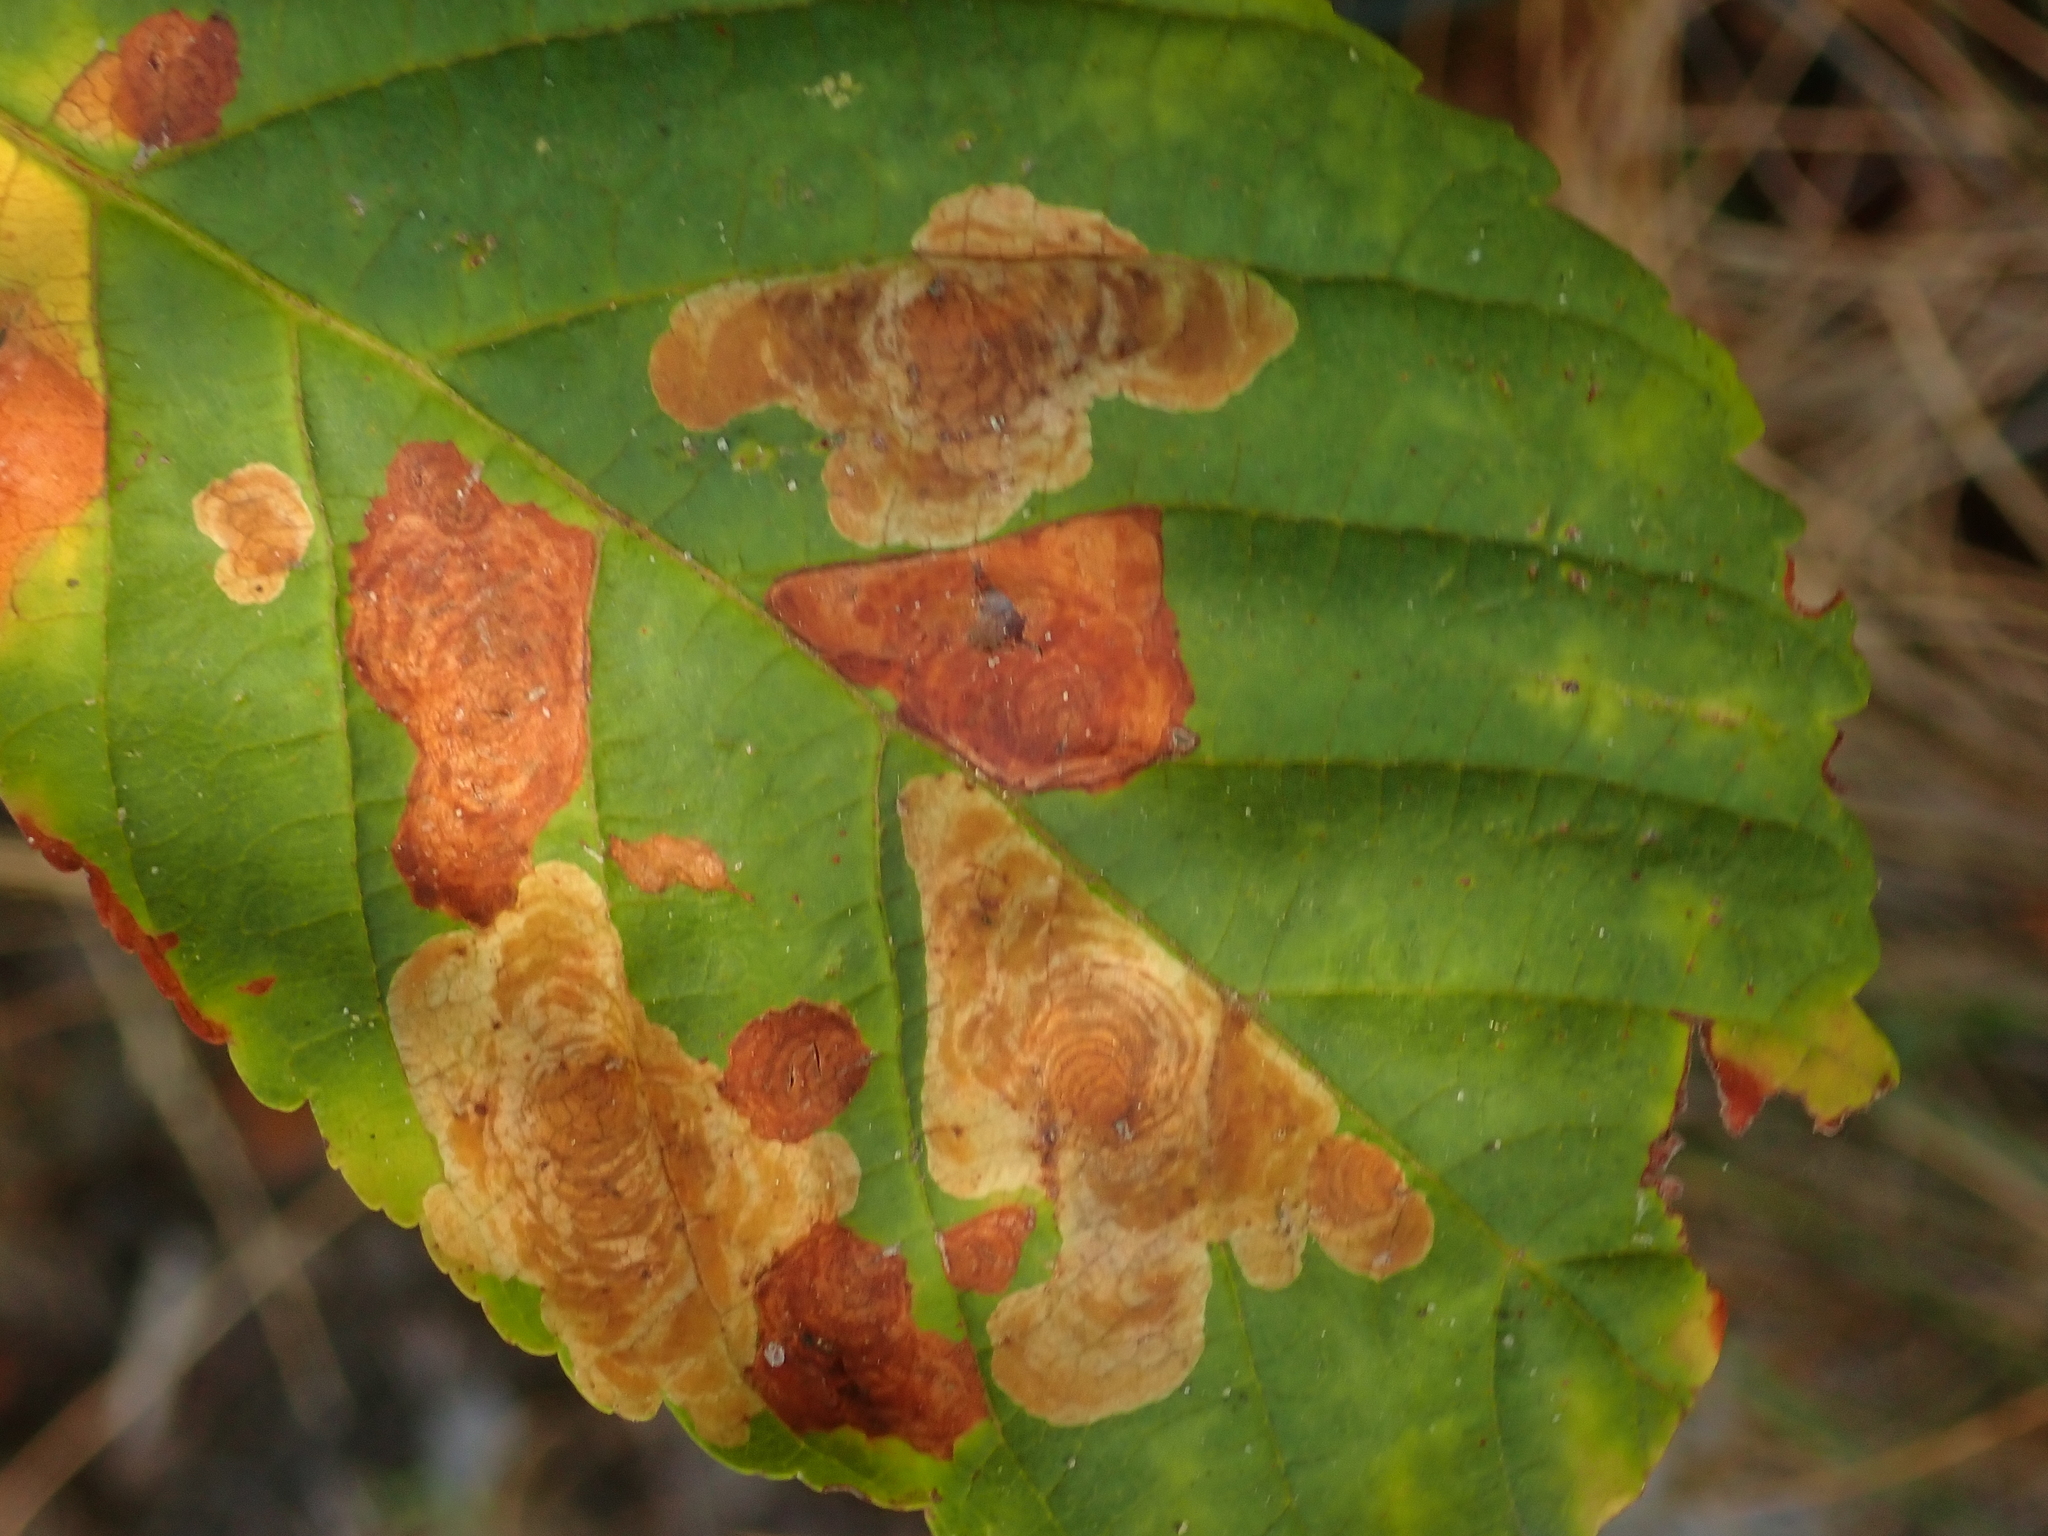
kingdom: Animalia
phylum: Arthropoda
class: Insecta
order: Lepidoptera
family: Gracillariidae
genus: Cameraria
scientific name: Cameraria ohridella
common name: Horse-chestnut leaf-miner
